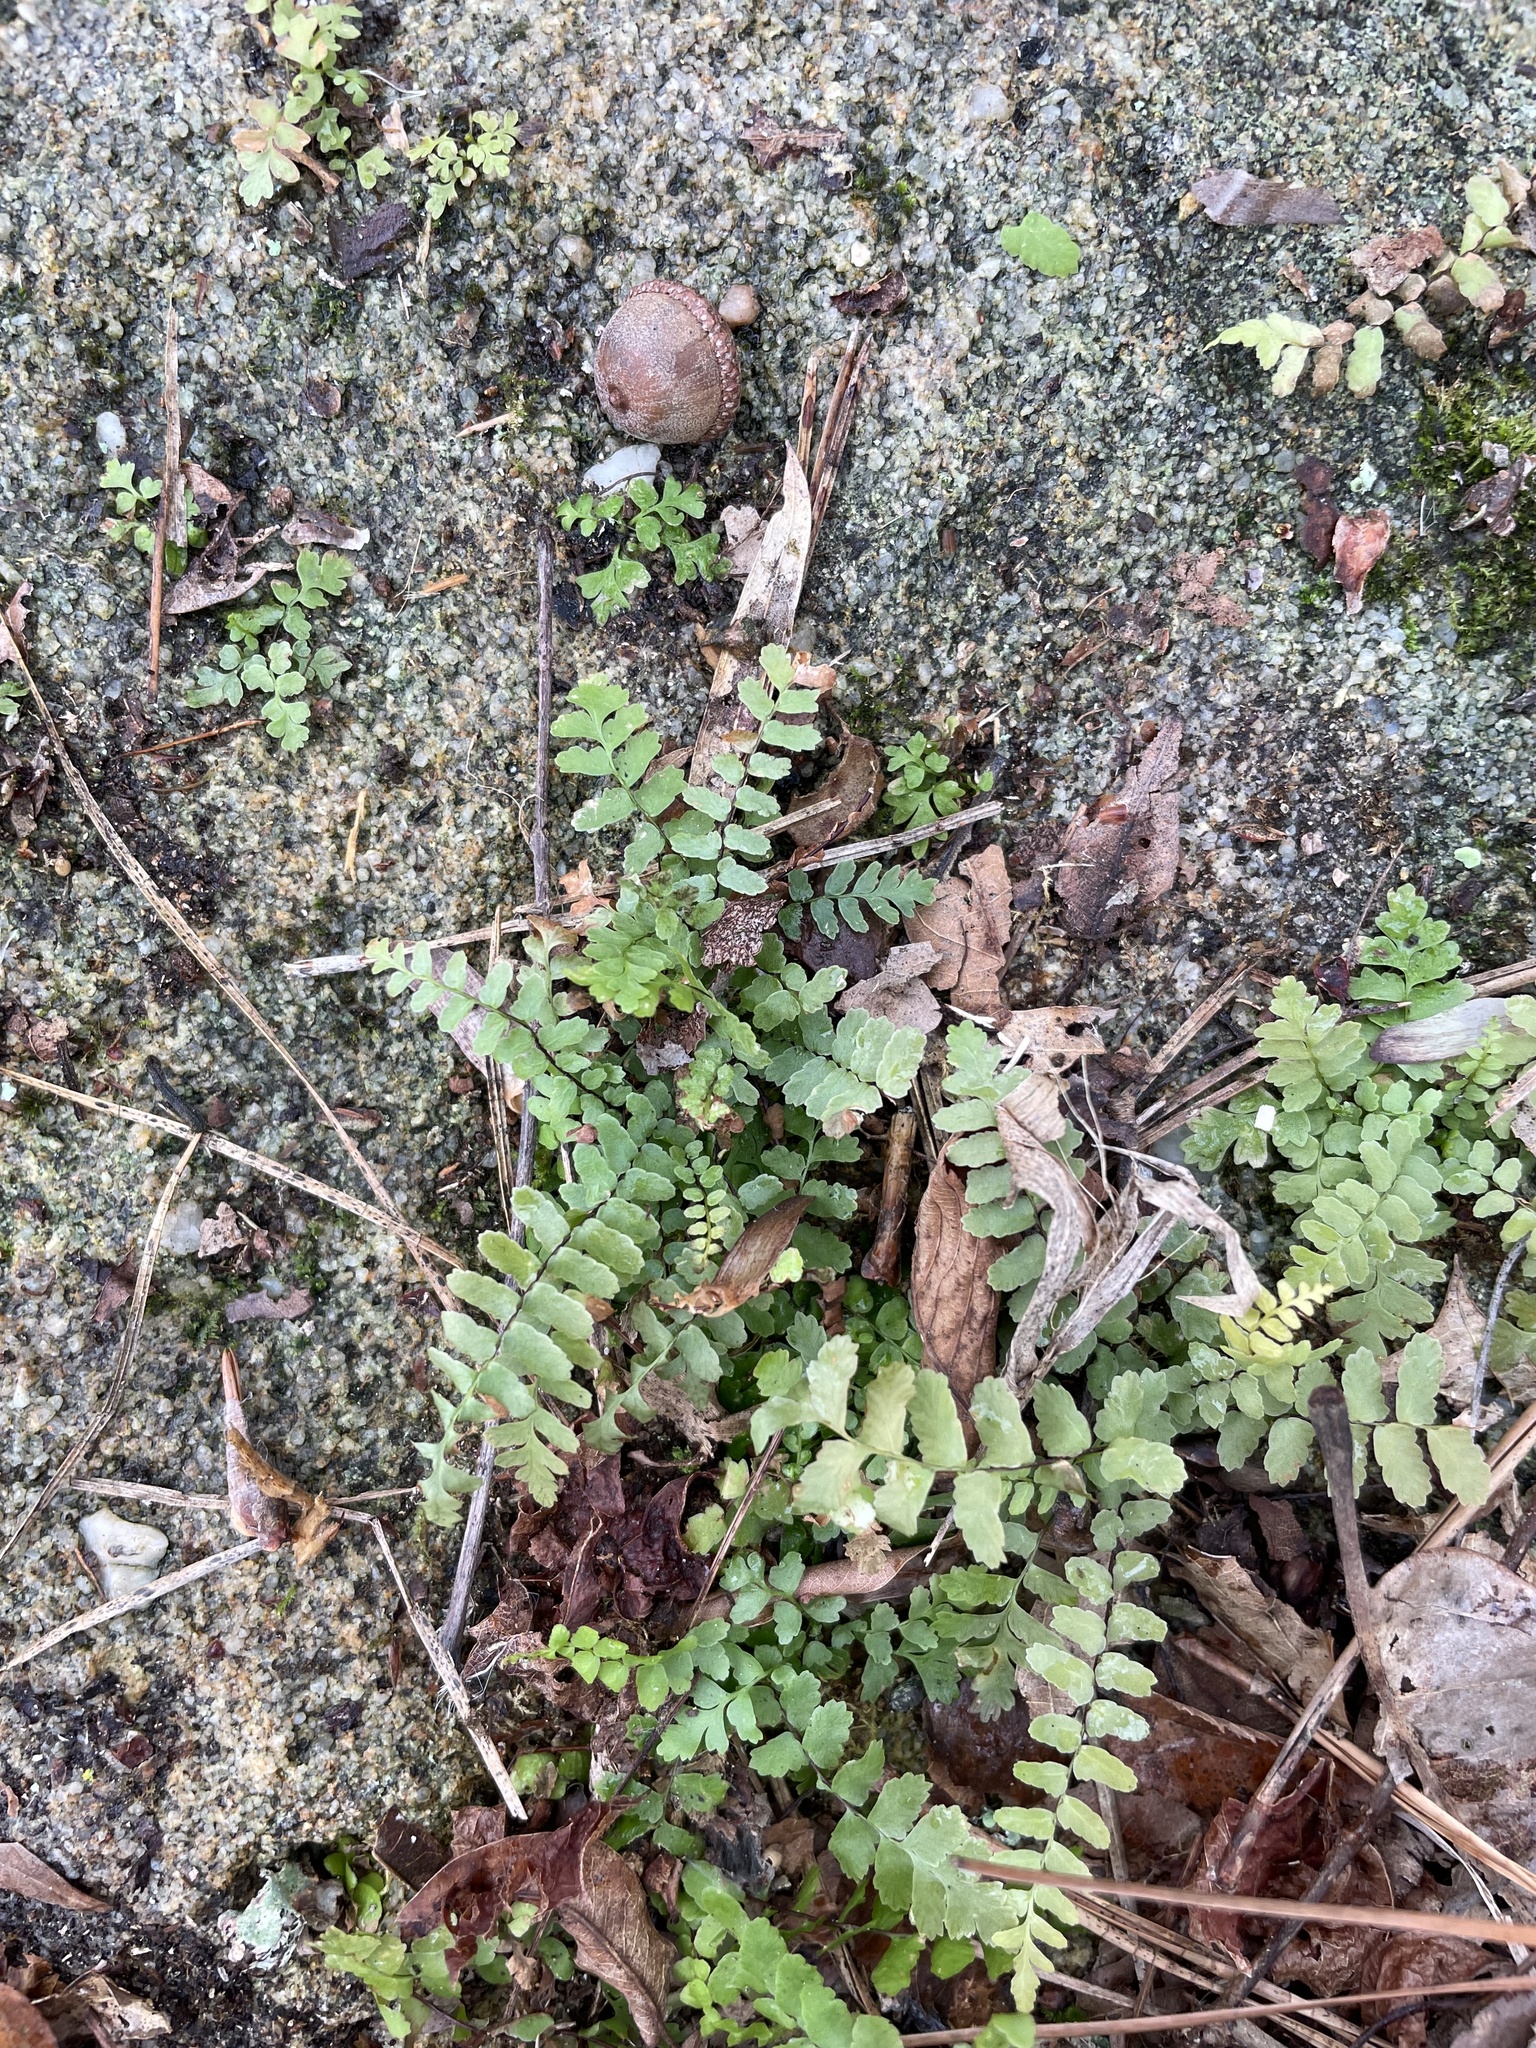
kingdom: Plantae
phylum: Tracheophyta
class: Polypodiopsida
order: Polypodiales
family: Aspleniaceae
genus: Asplenium
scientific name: Asplenium platyneuron
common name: Ebony spleenwort
